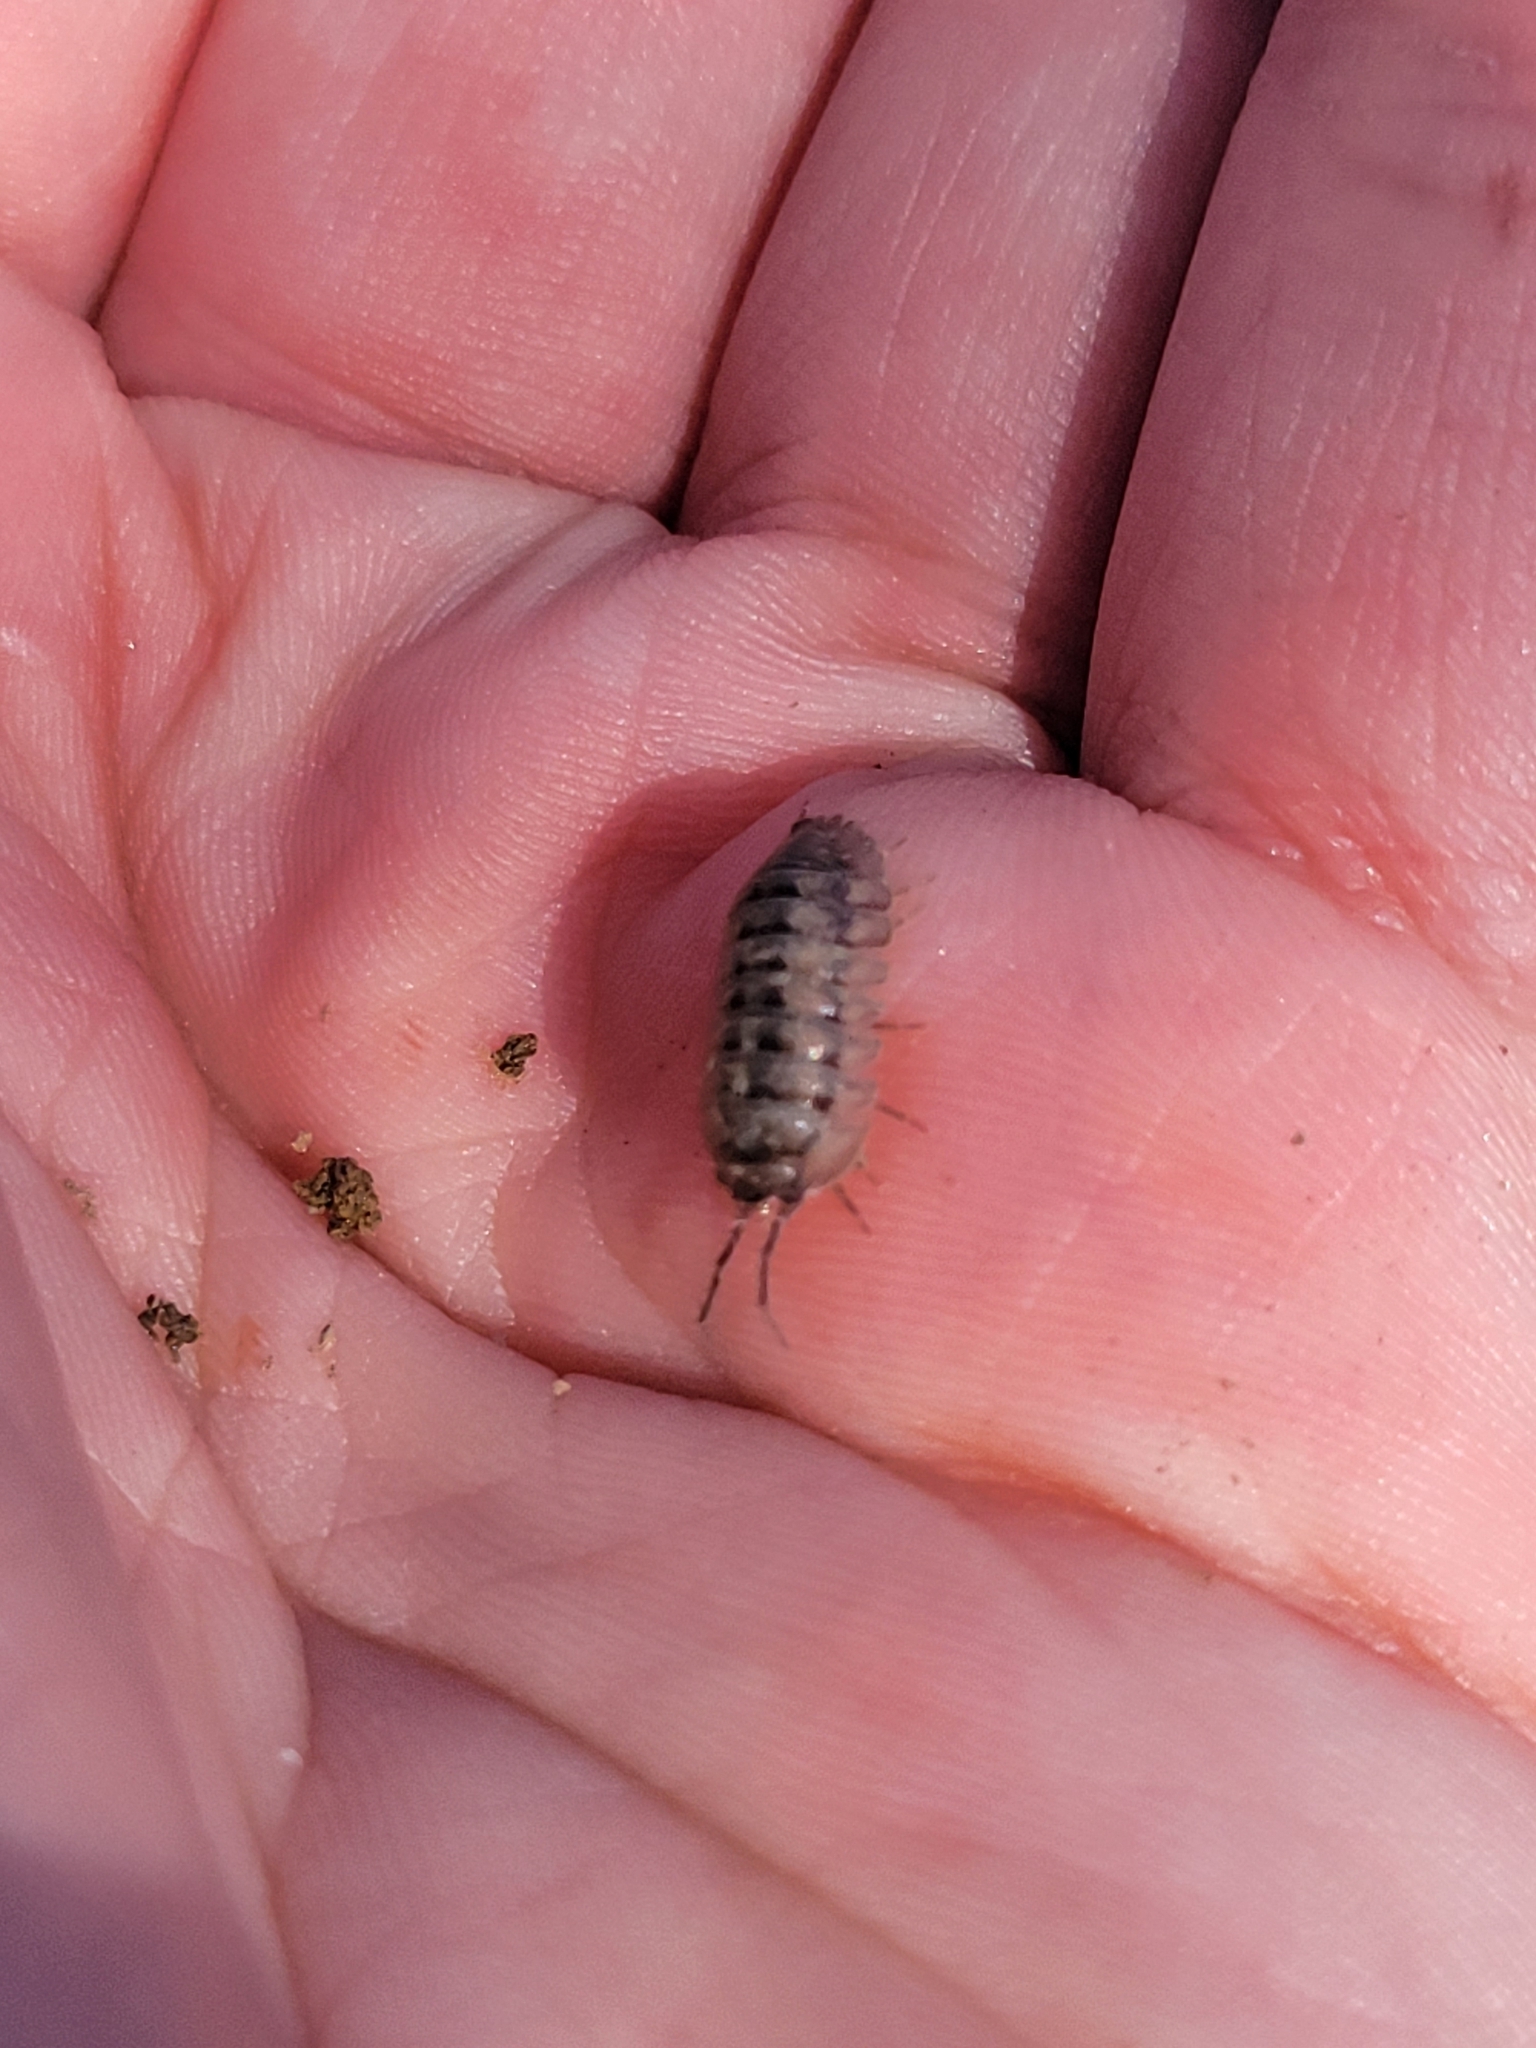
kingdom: Animalia
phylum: Arthropoda
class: Malacostraca
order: Isopoda
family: Armadillidiidae
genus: Armadillidium
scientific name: Armadillidium nasatum
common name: Isopod
